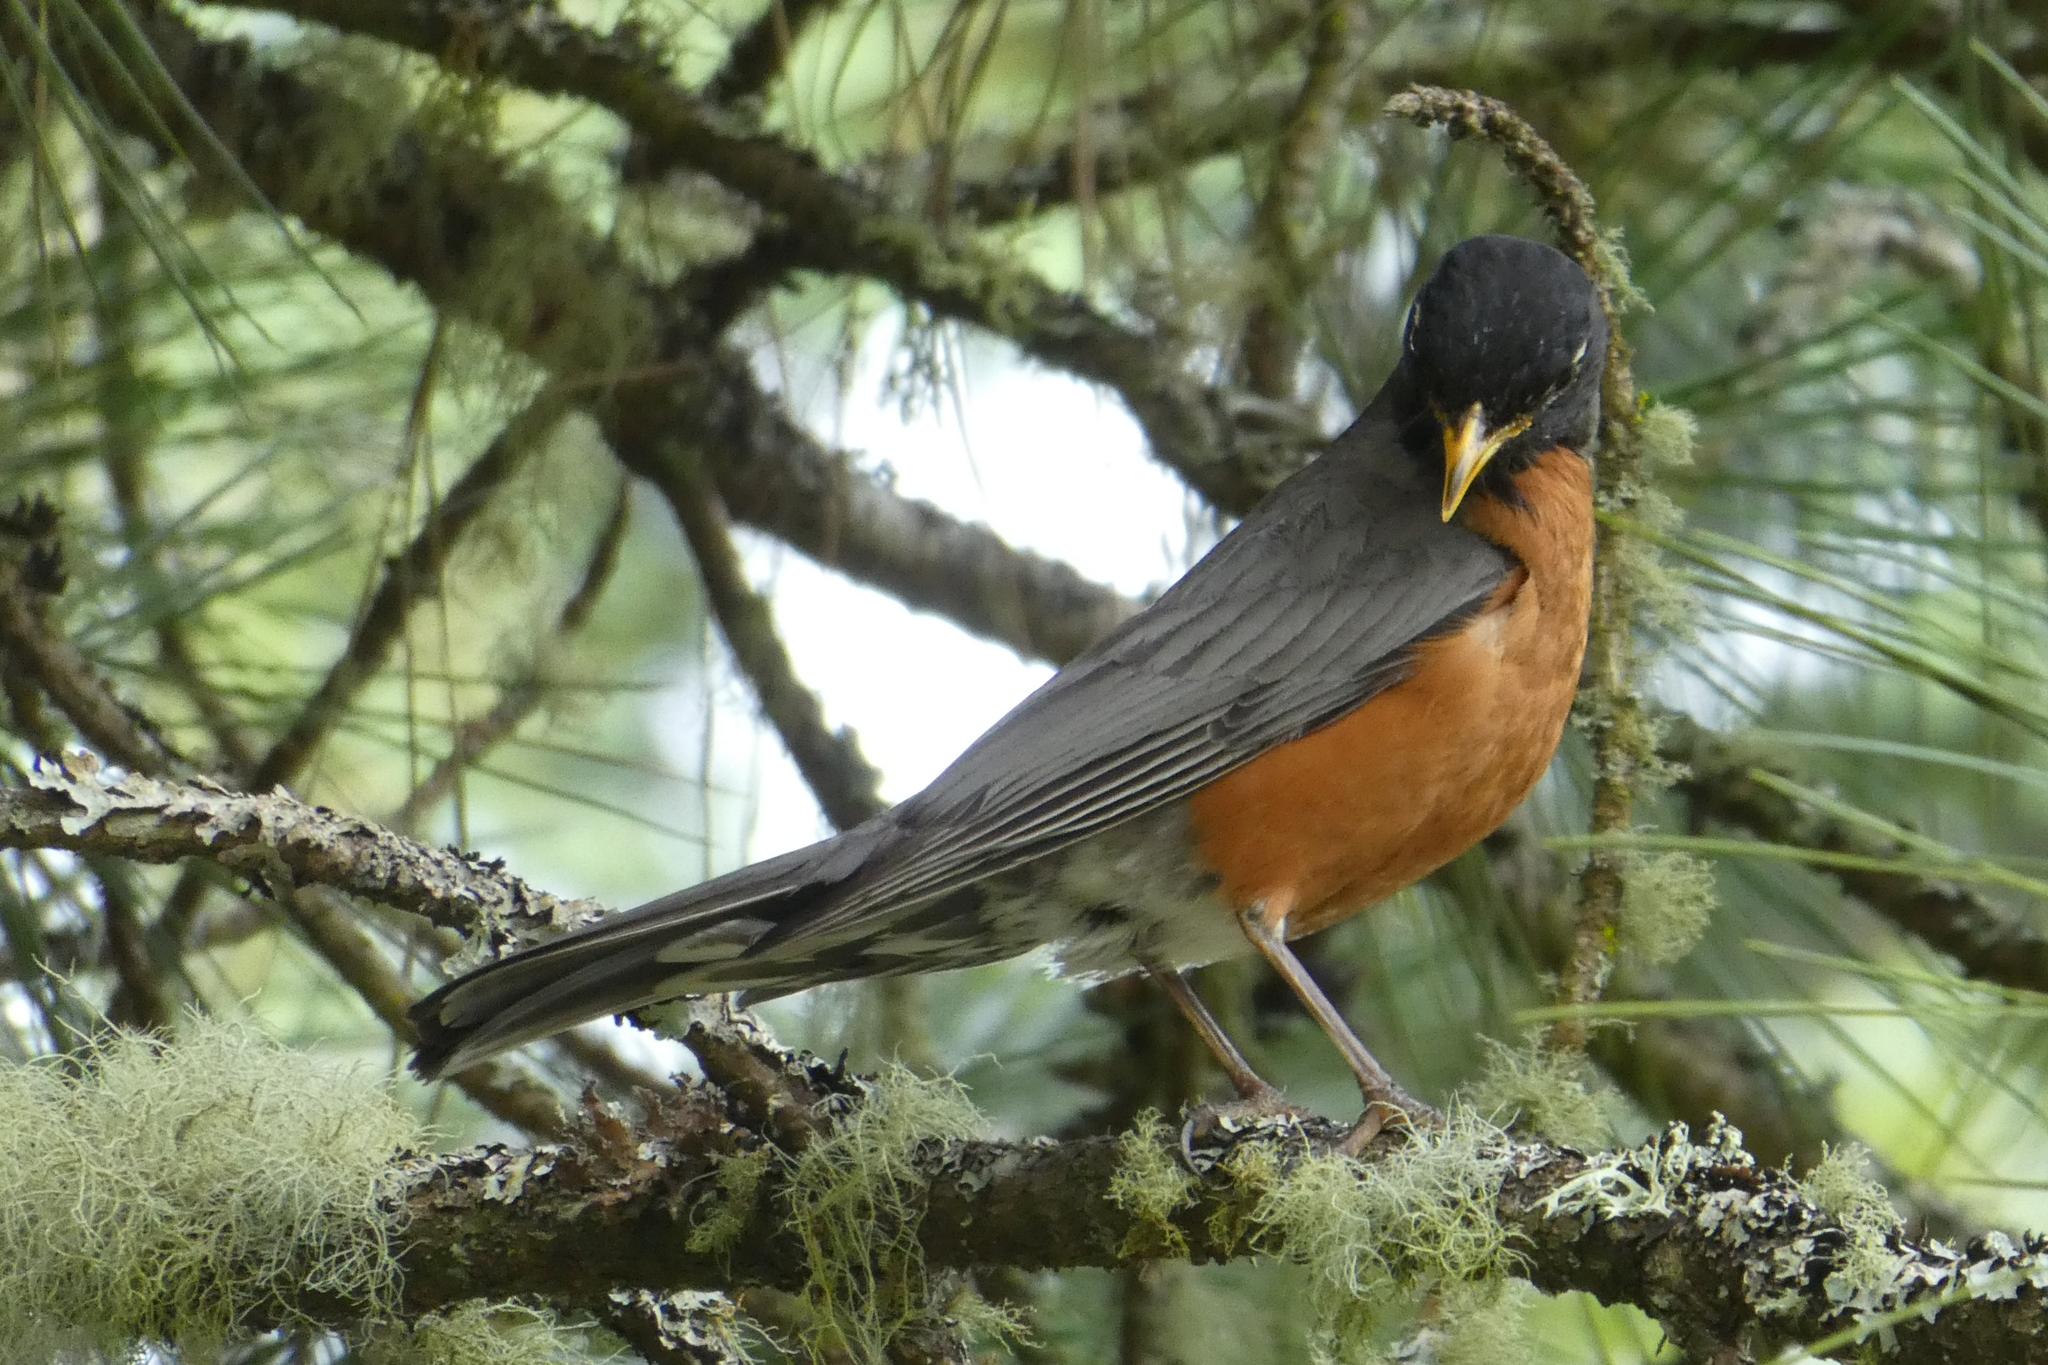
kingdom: Animalia
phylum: Chordata
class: Aves
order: Passeriformes
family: Turdidae
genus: Turdus
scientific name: Turdus migratorius
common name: American robin
